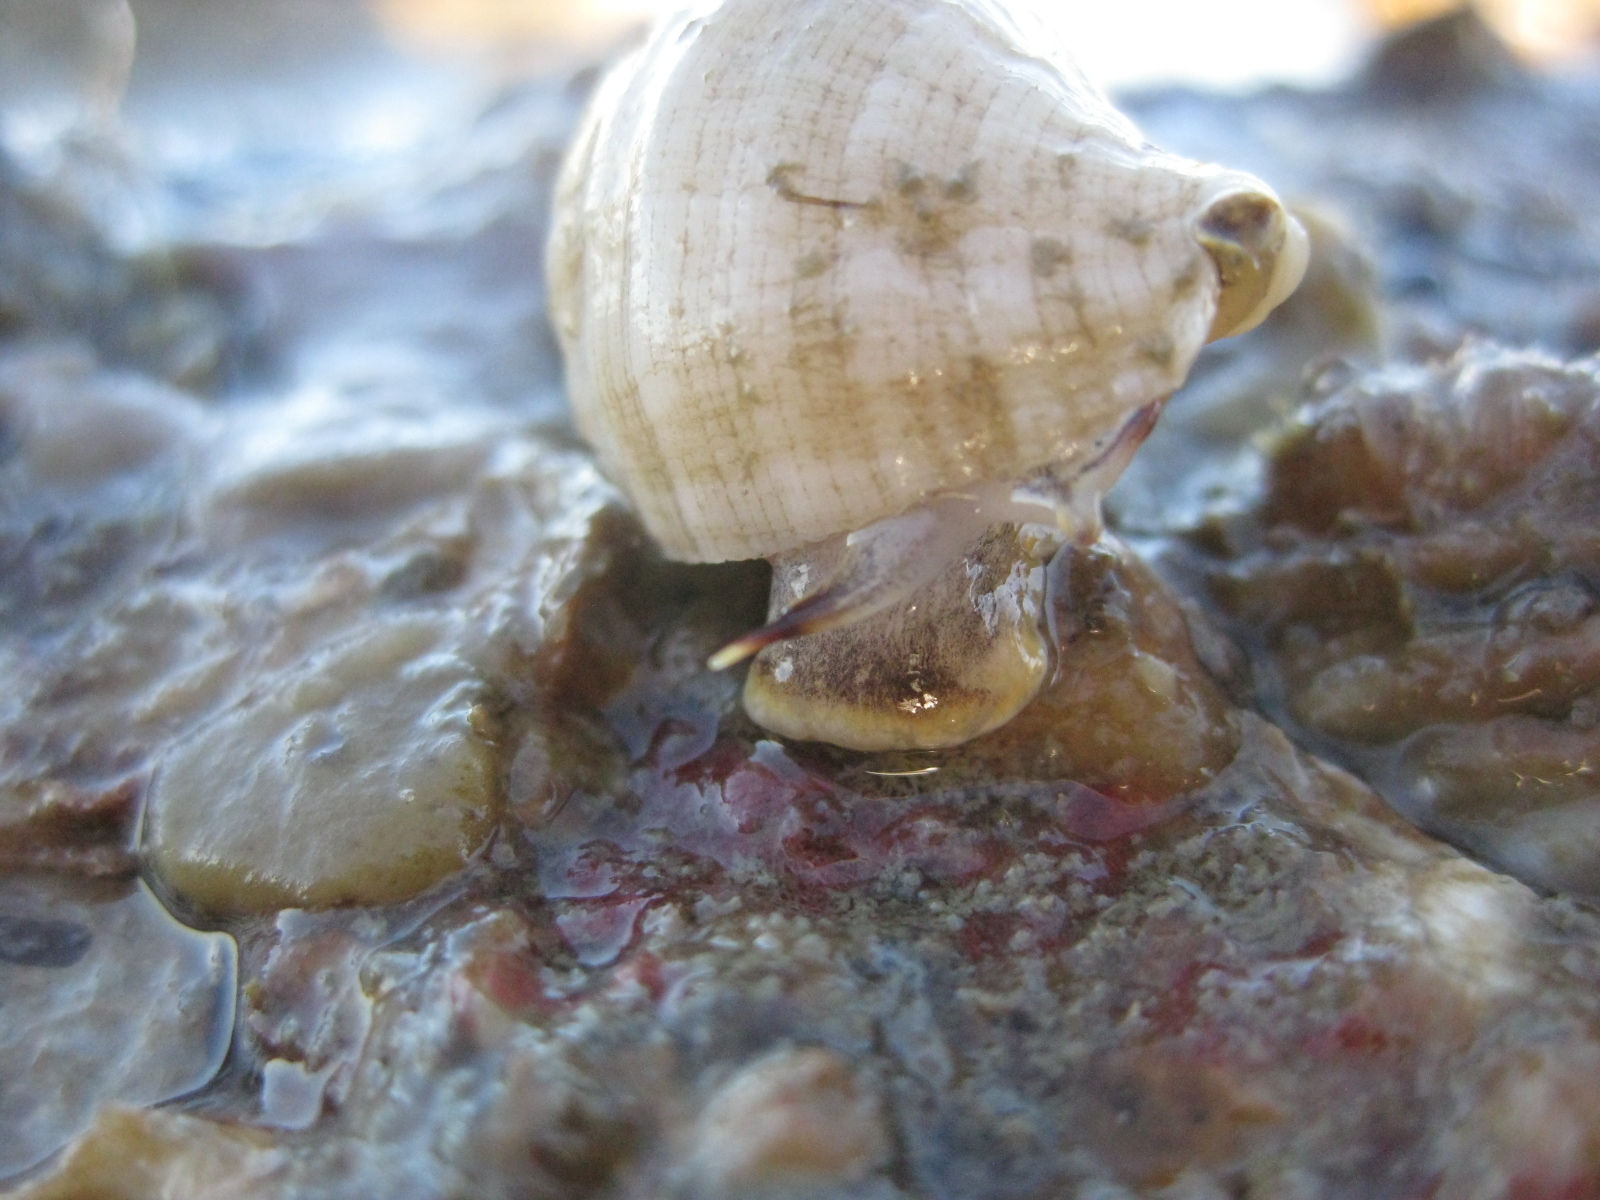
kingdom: Animalia
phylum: Mollusca
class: Gastropoda
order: Neogastropoda
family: Muricidae
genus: Dicathais
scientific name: Dicathais orbita
